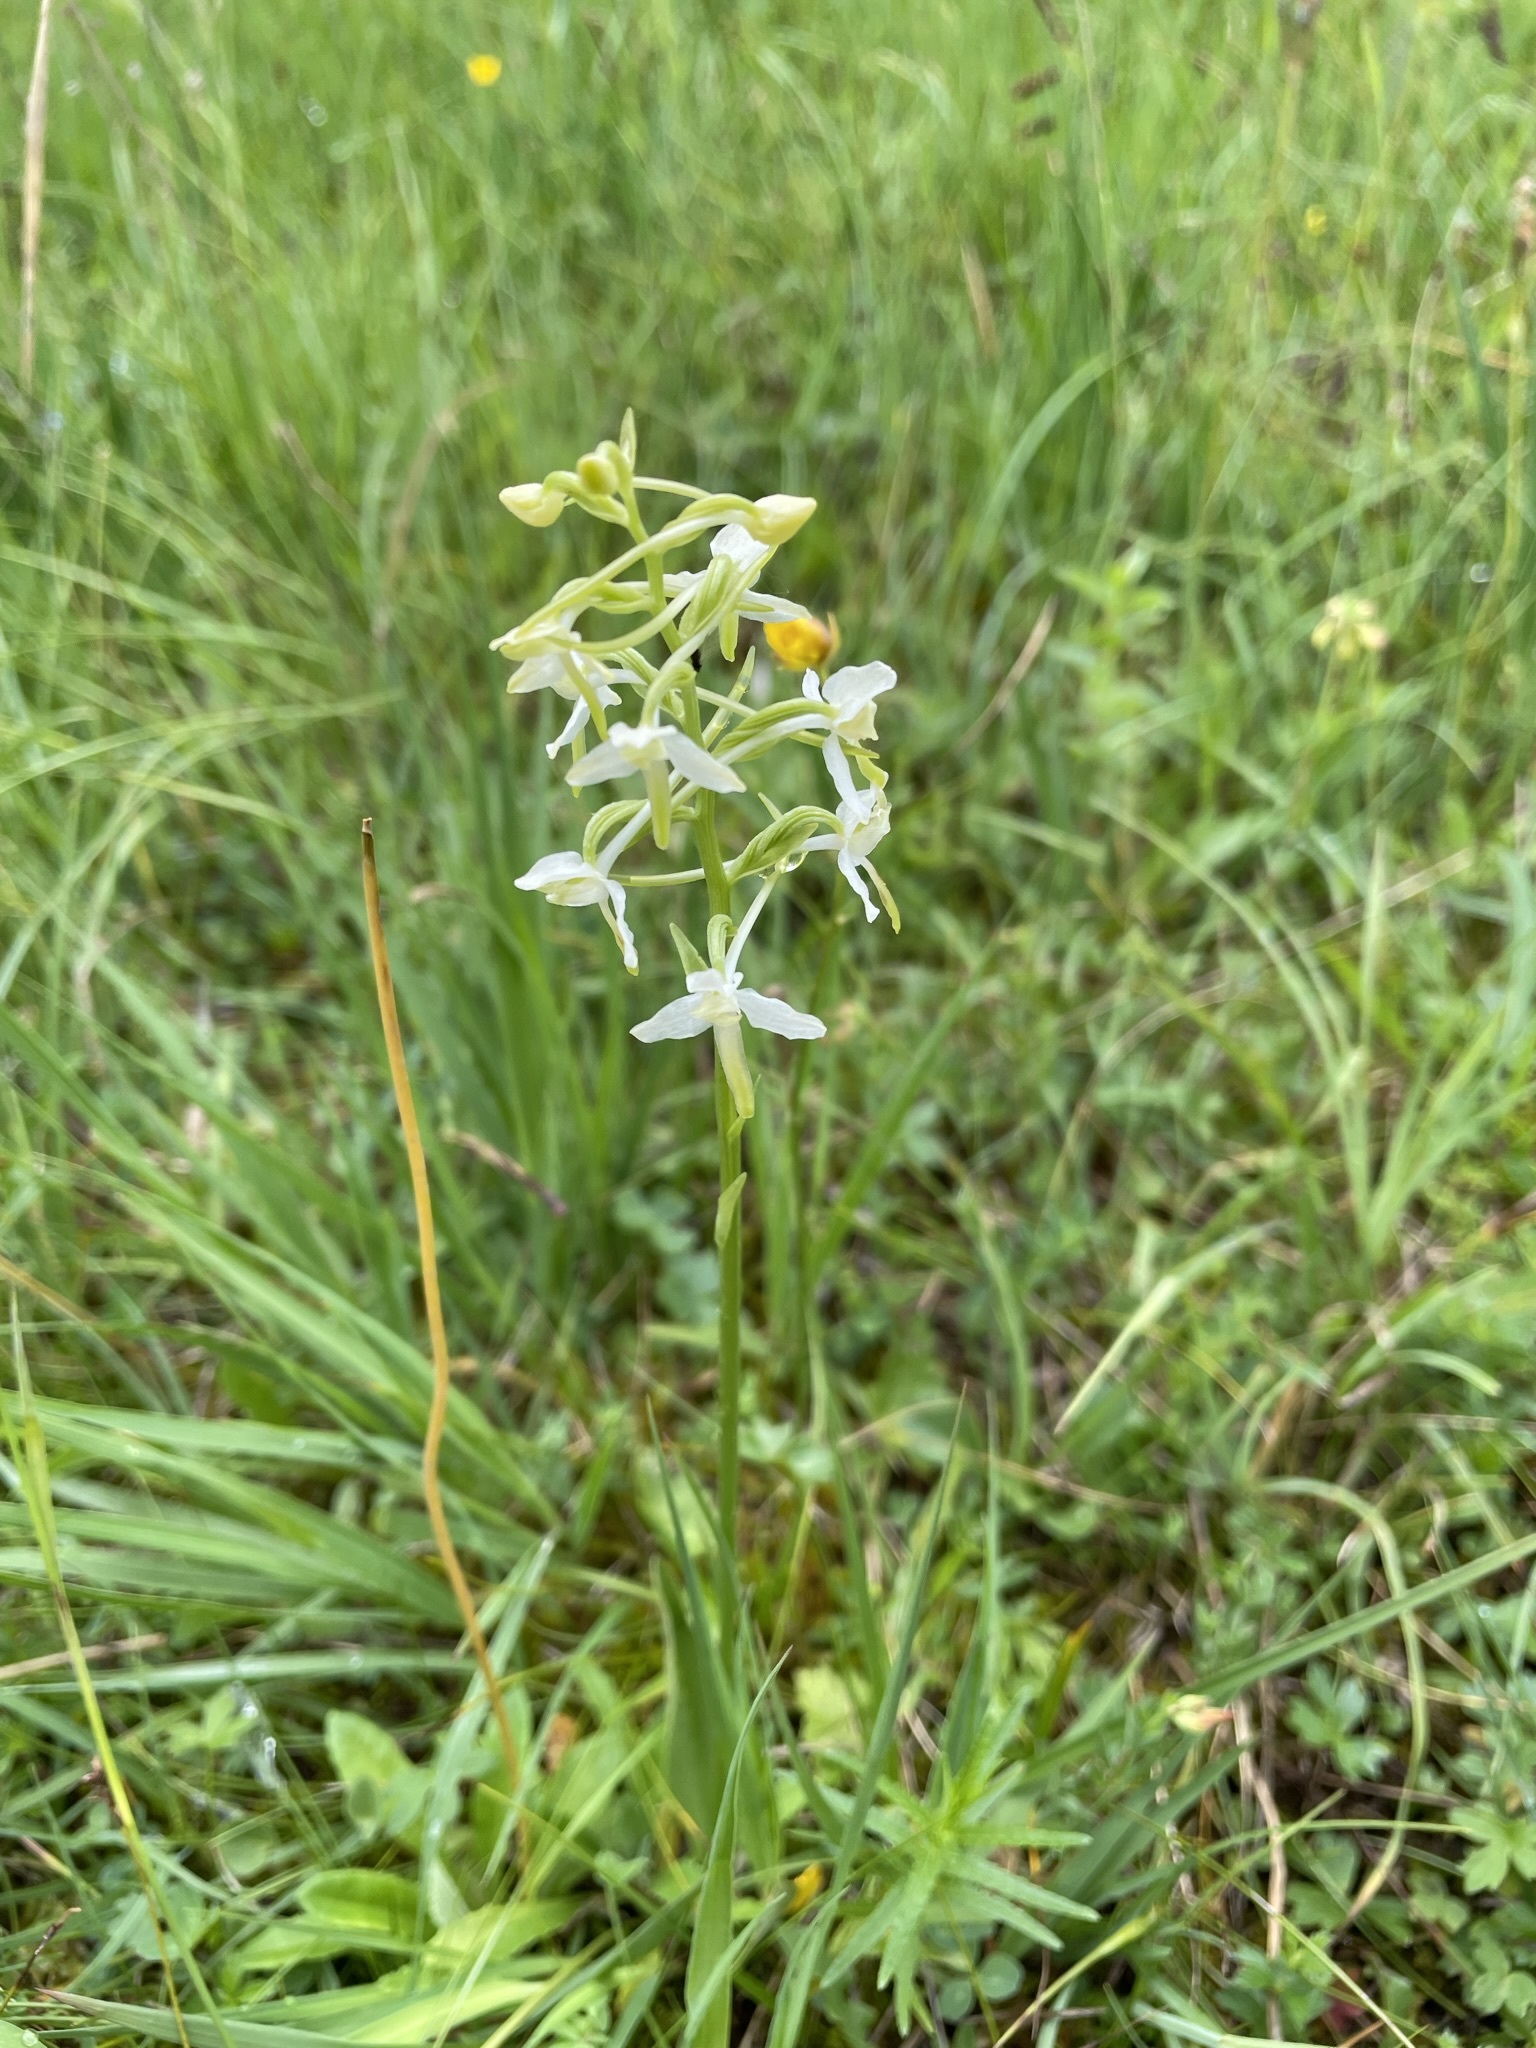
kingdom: Plantae
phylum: Tracheophyta
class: Liliopsida
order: Asparagales
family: Orchidaceae
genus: Platanthera
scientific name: Platanthera bifolia
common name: Lesser butterfly-orchid
